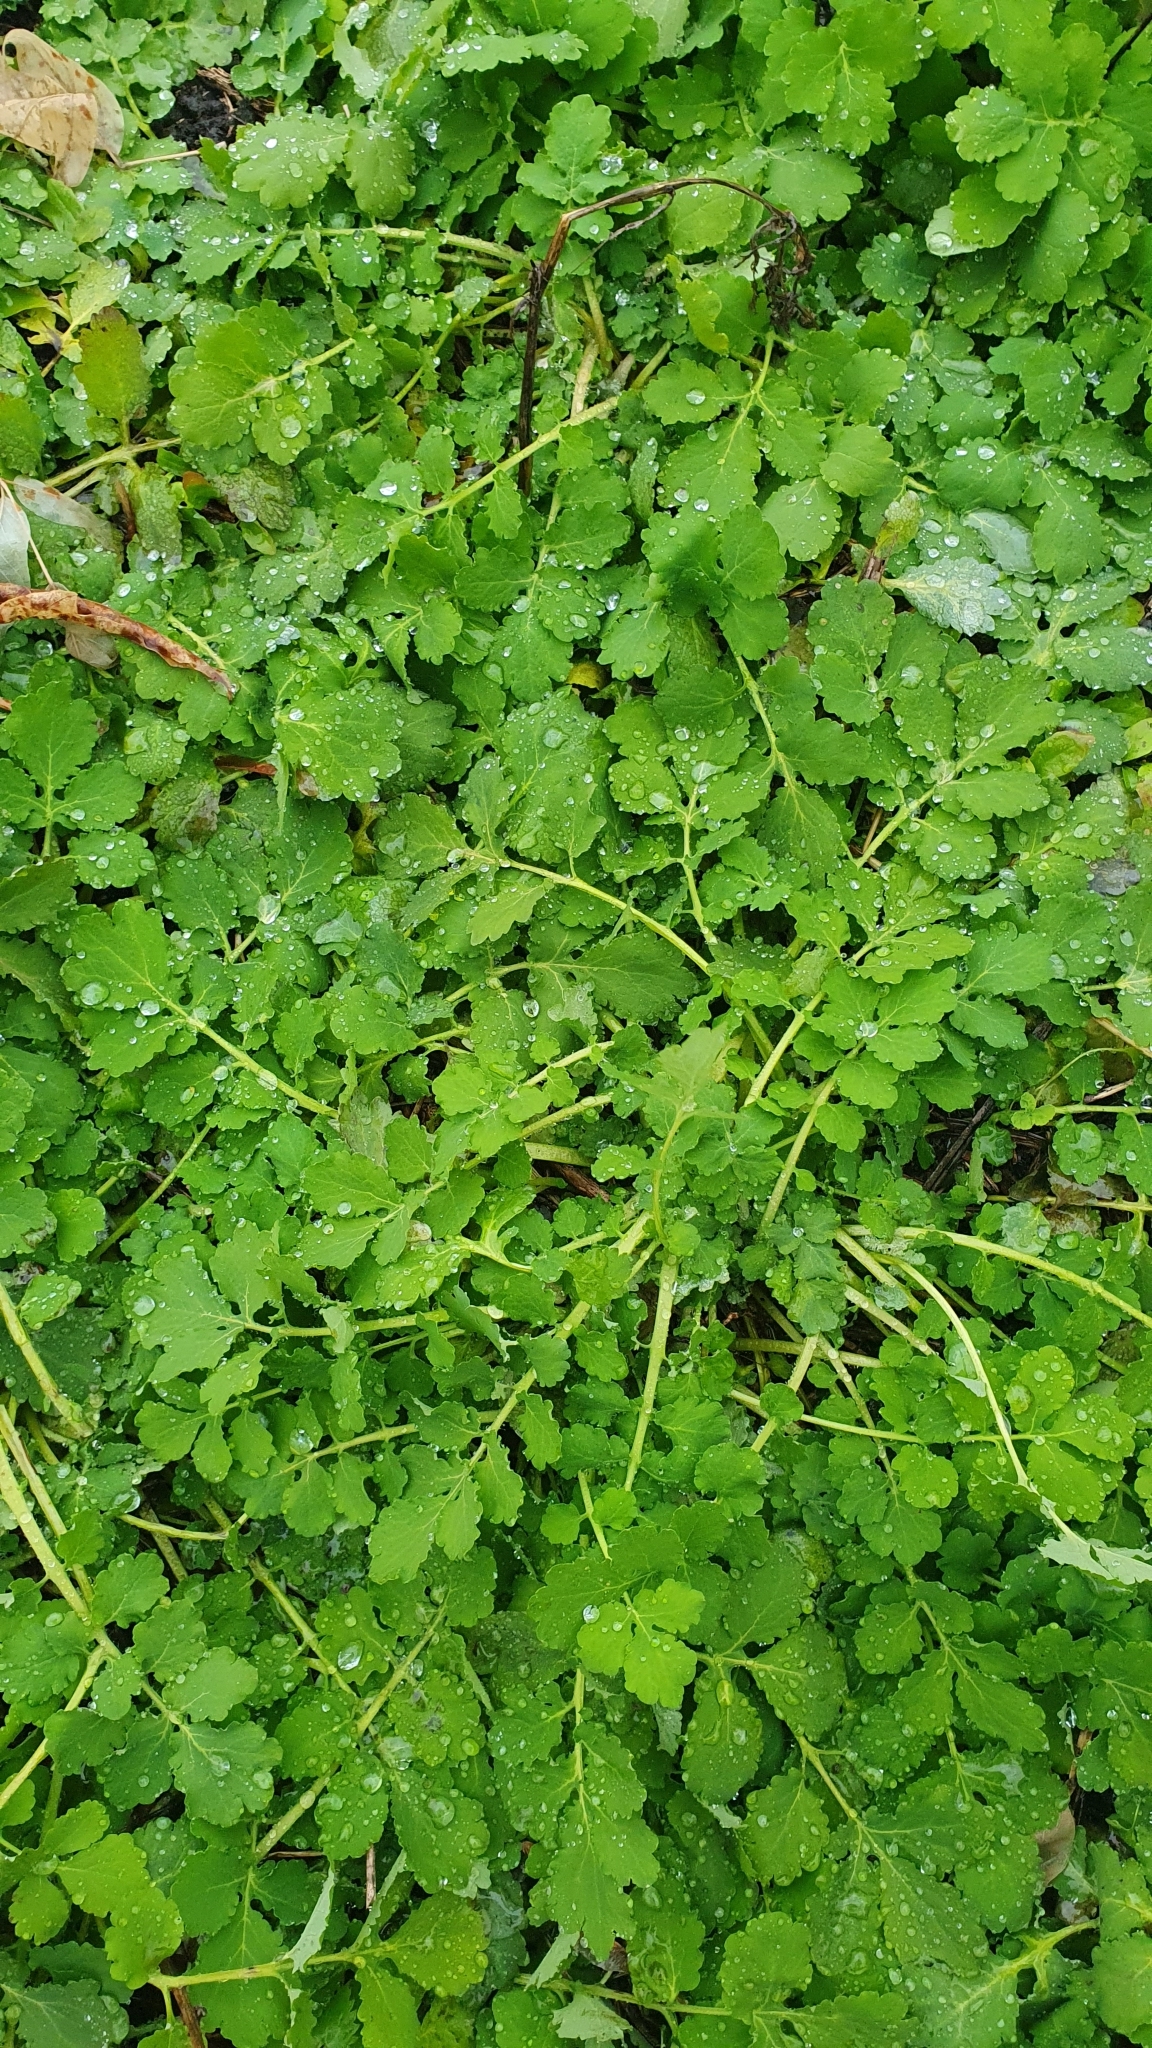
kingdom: Plantae
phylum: Tracheophyta
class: Magnoliopsida
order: Ranunculales
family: Papaveraceae
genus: Chelidonium
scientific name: Chelidonium majus
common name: Greater celandine
